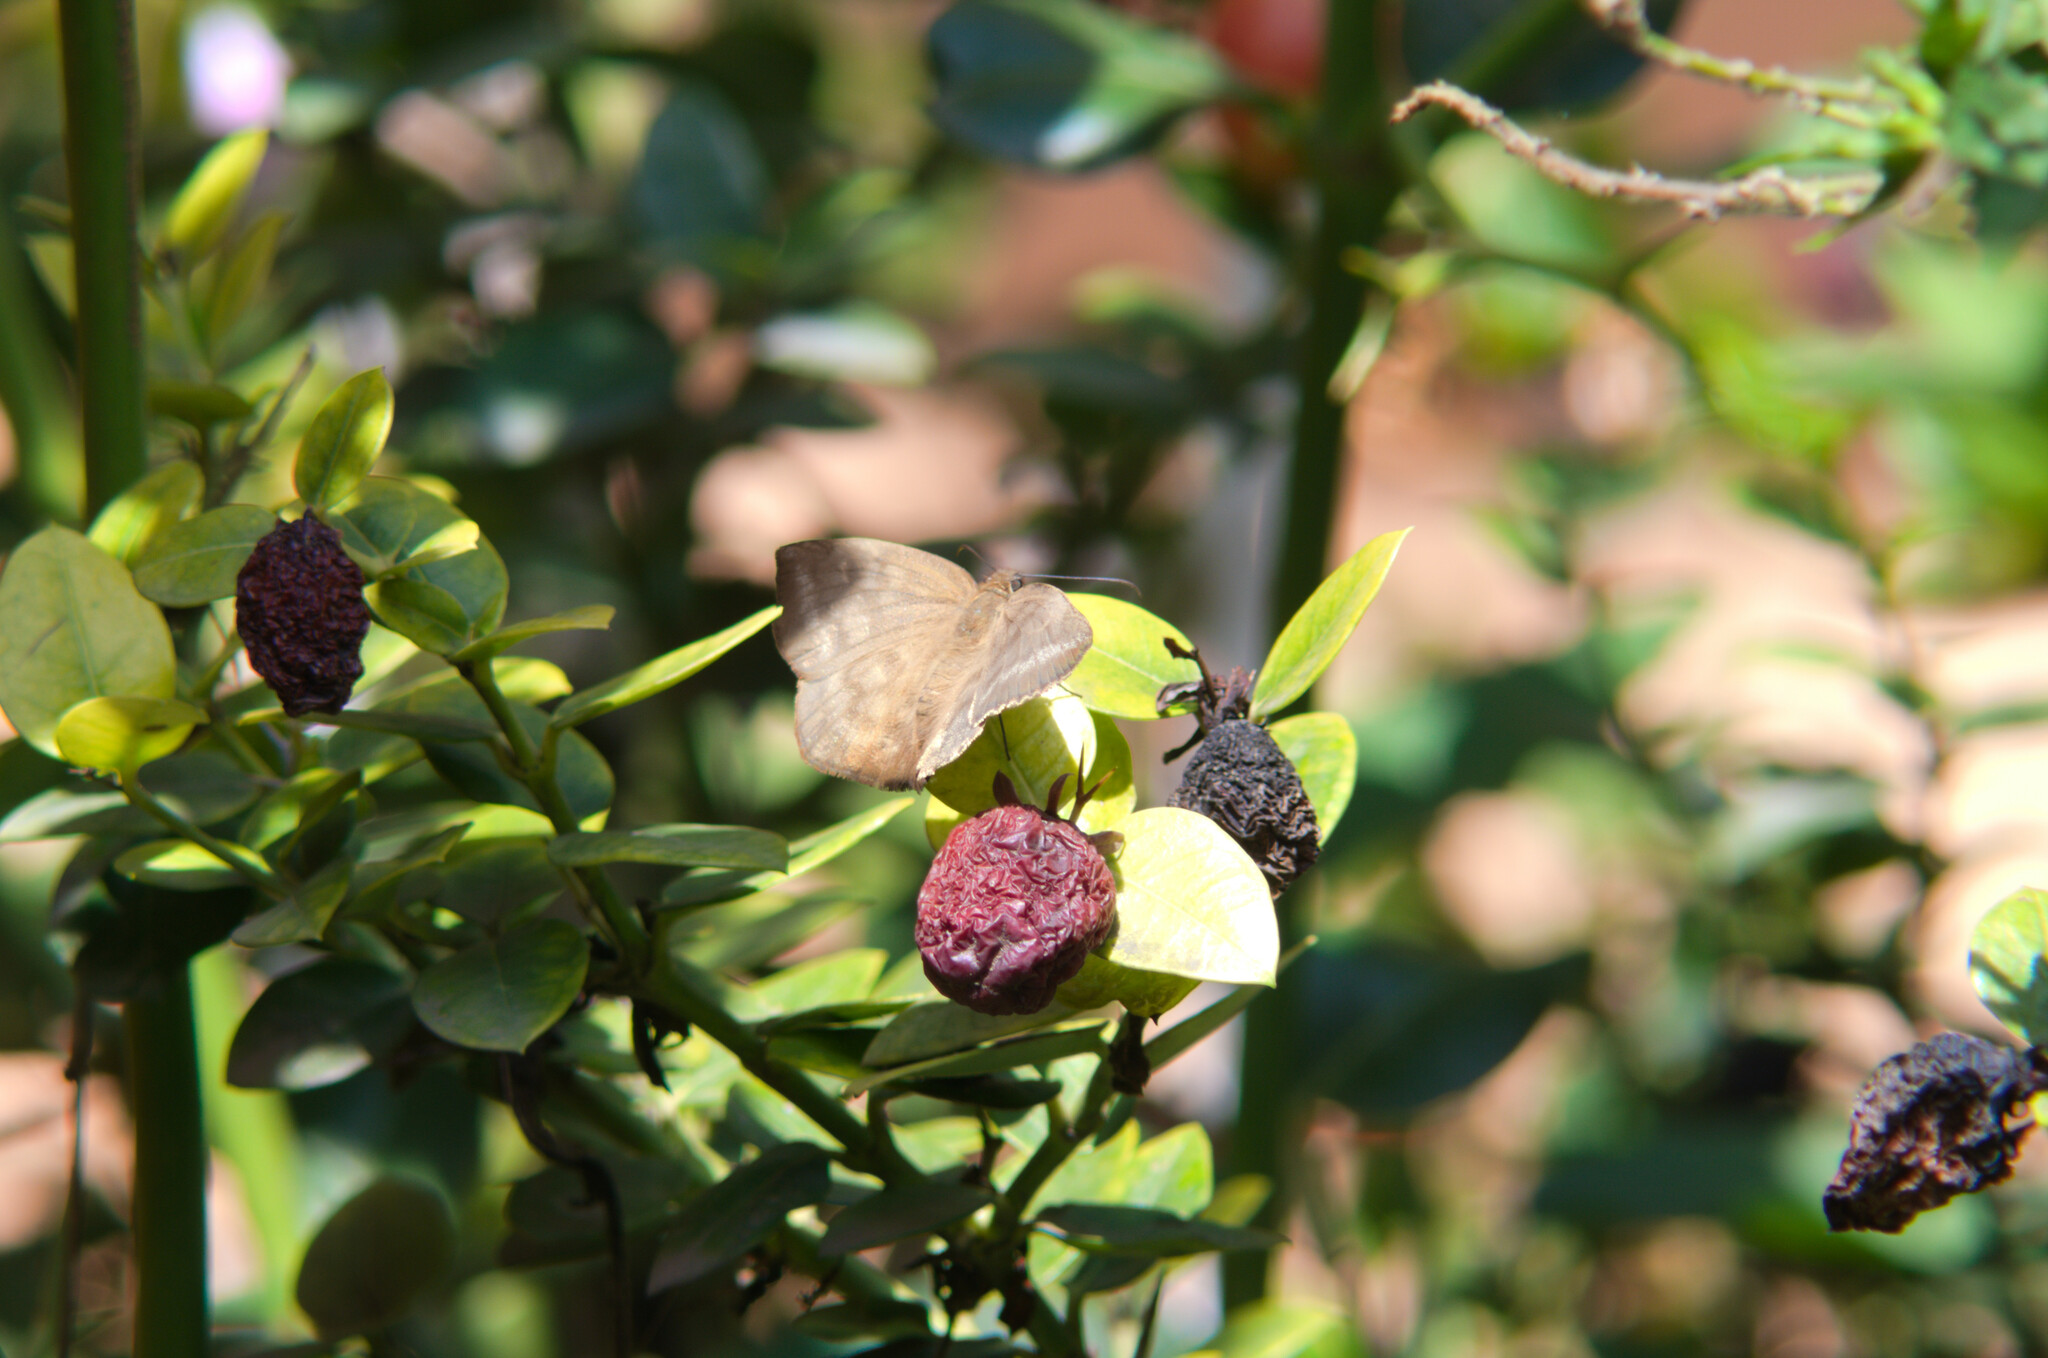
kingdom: Animalia
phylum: Arthropoda
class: Insecta
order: Lepidoptera
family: Hesperiidae
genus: Achlyodes
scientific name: Achlyodes pallida
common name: Pale sicklewing
